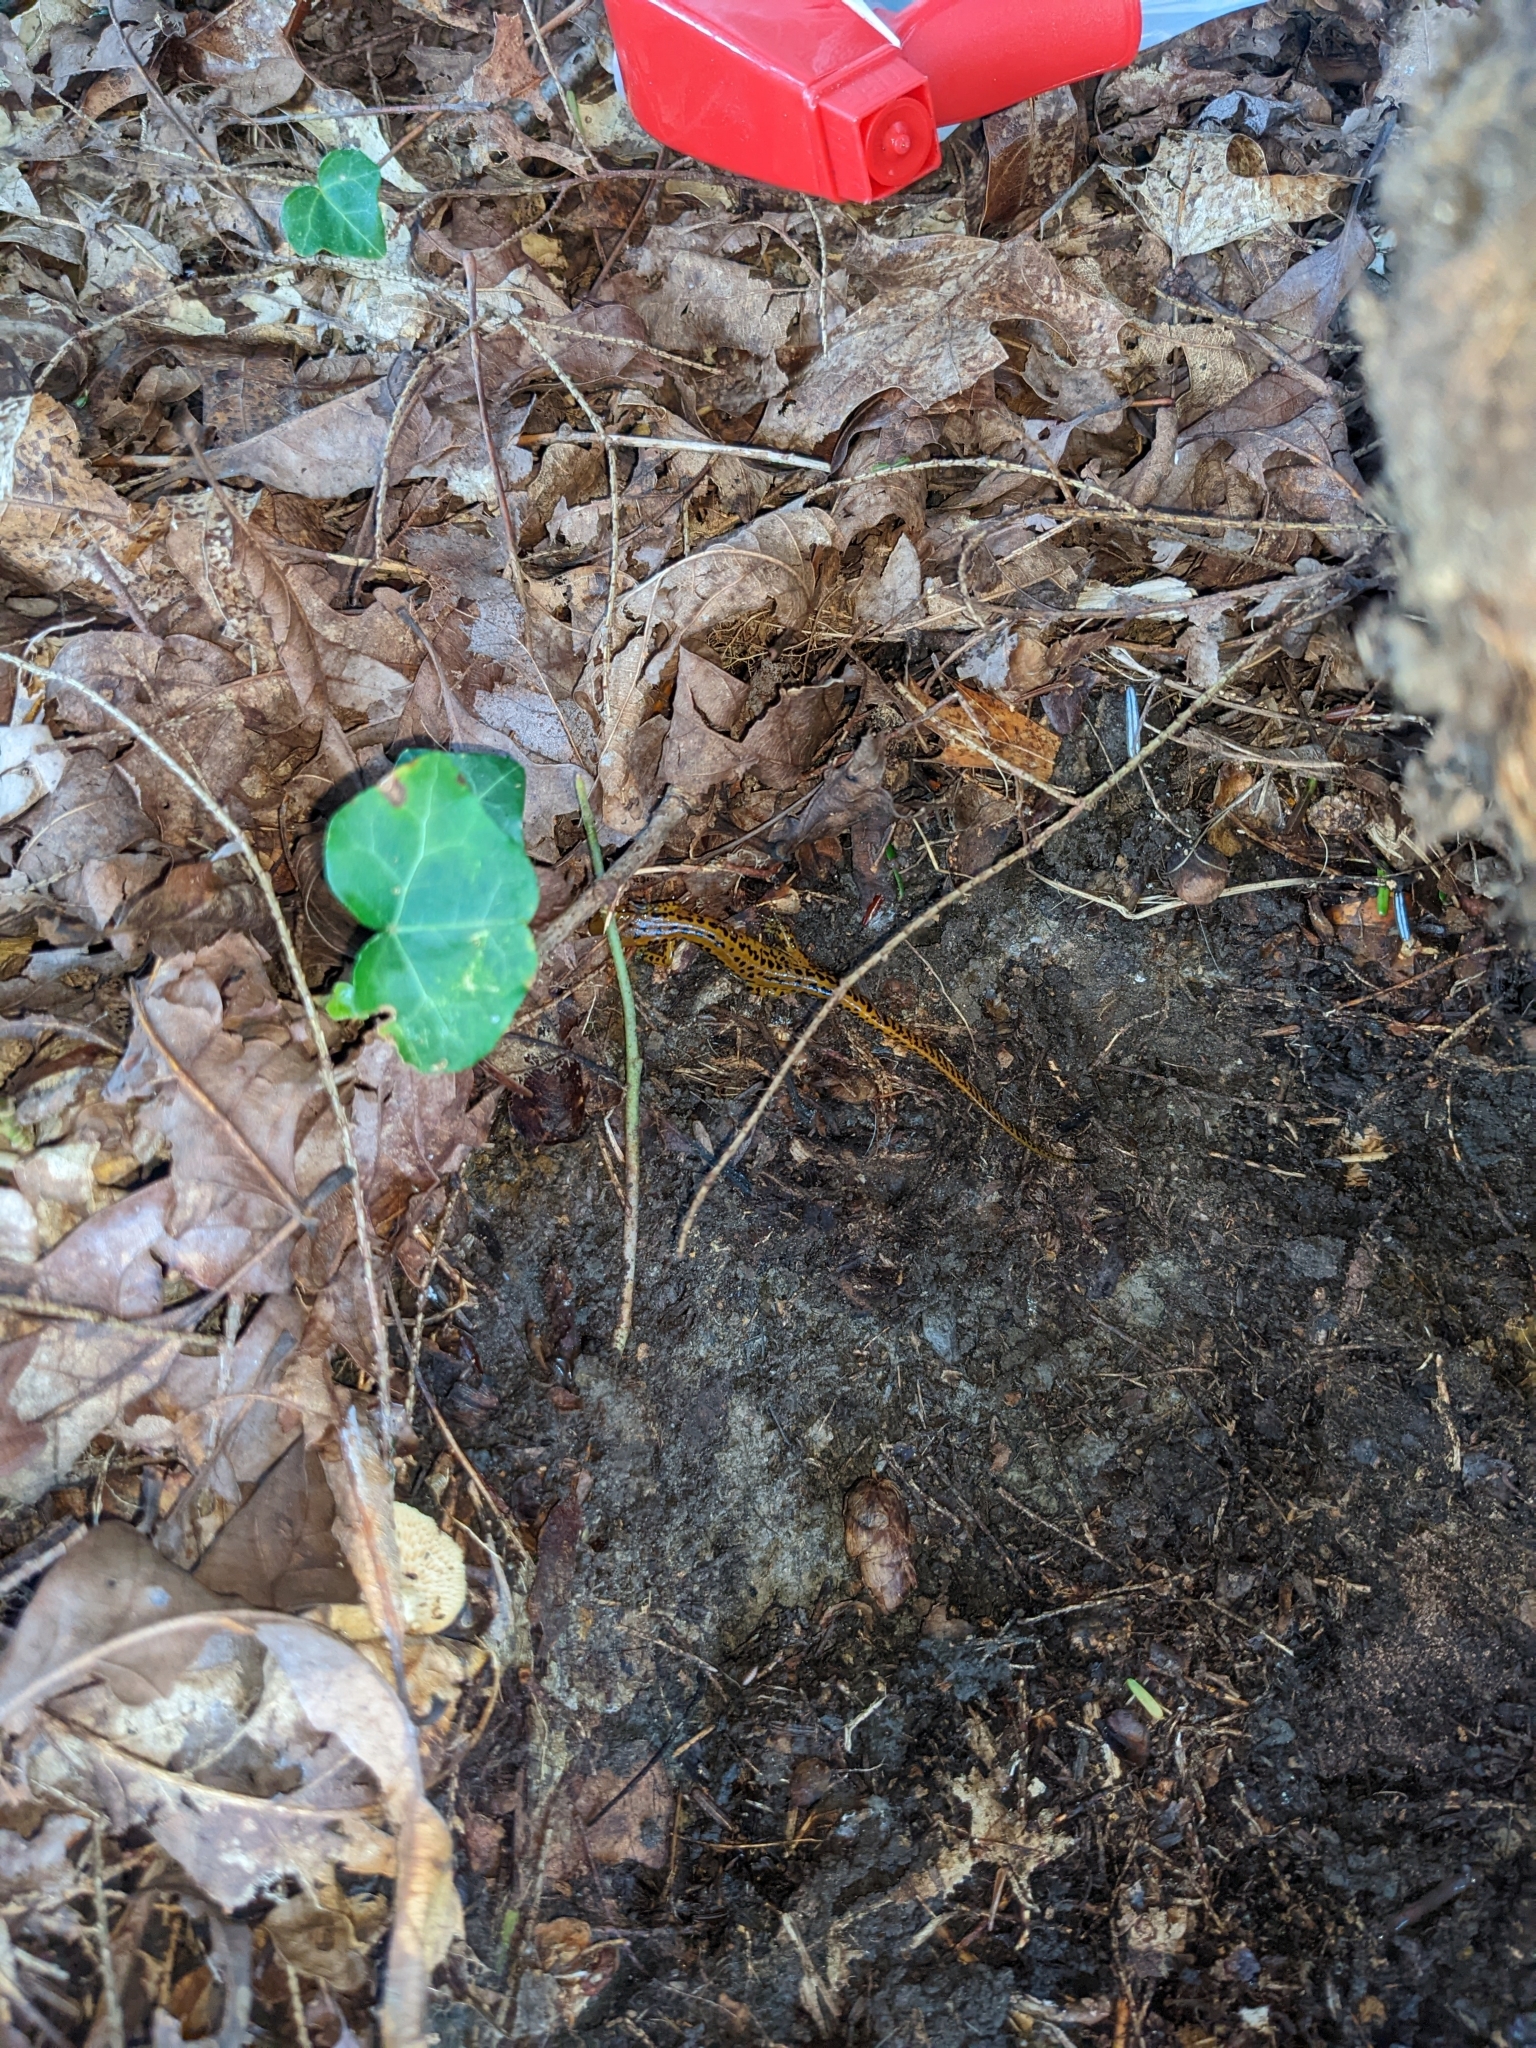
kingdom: Animalia
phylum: Chordata
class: Amphibia
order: Caudata
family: Plethodontidae
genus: Eurycea
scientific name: Eurycea longicauda
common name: Long-tailed salamander
